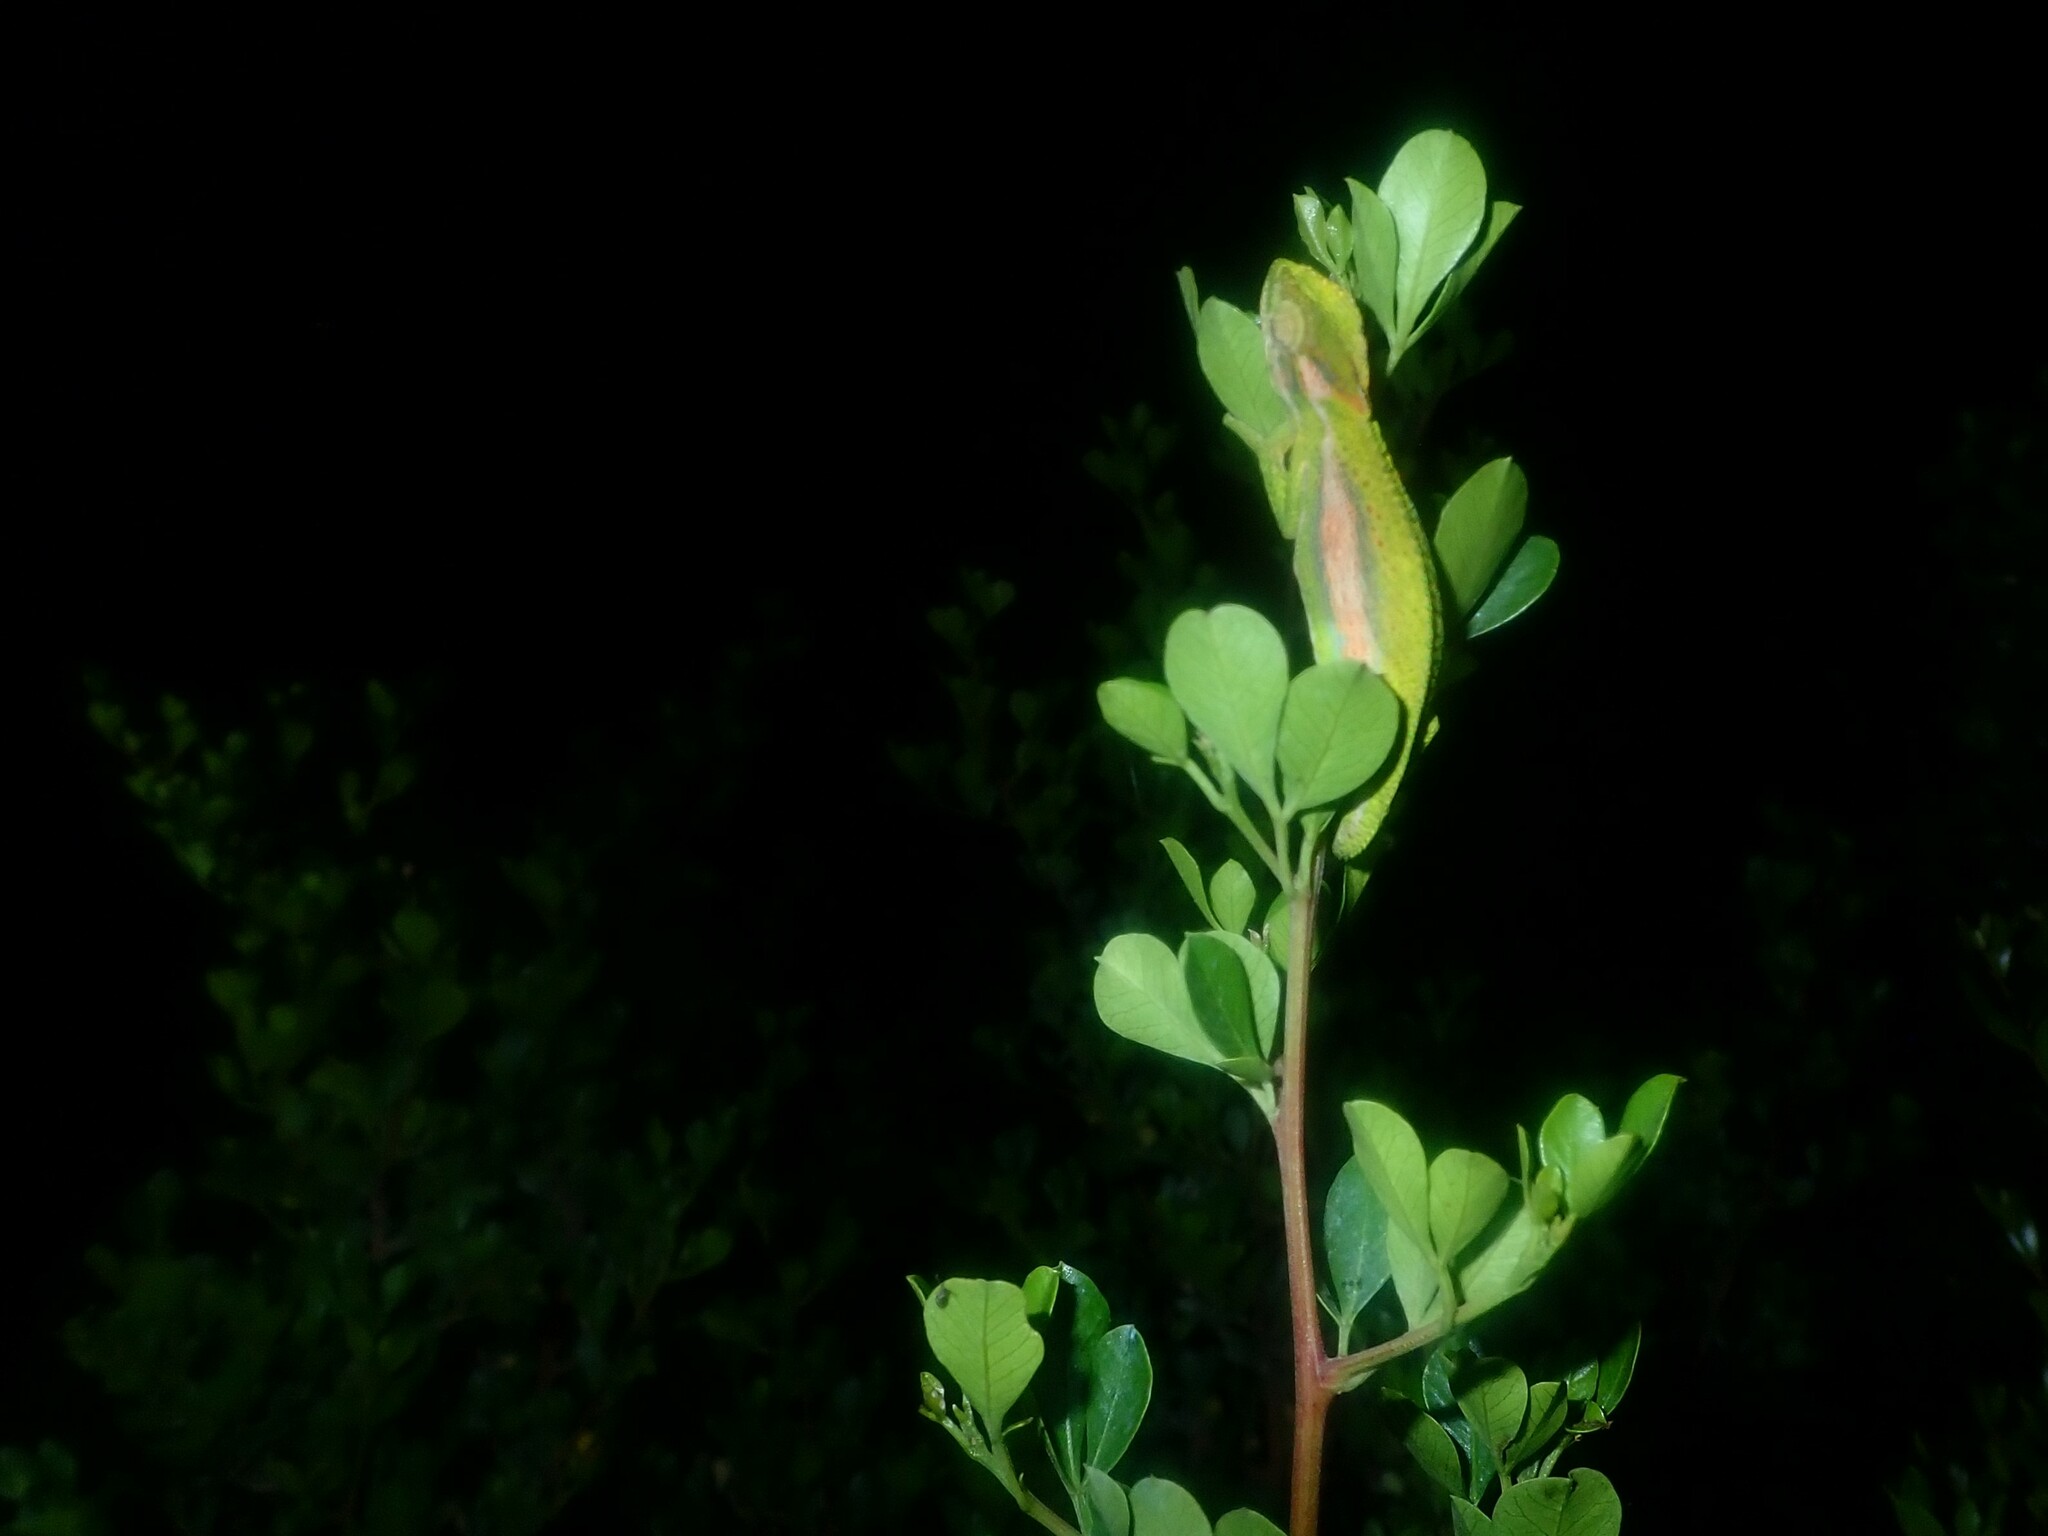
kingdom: Animalia
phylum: Chordata
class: Squamata
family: Chamaeleonidae
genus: Bradypodion
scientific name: Bradypodion pumilum
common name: Cape dwarf chameleon
